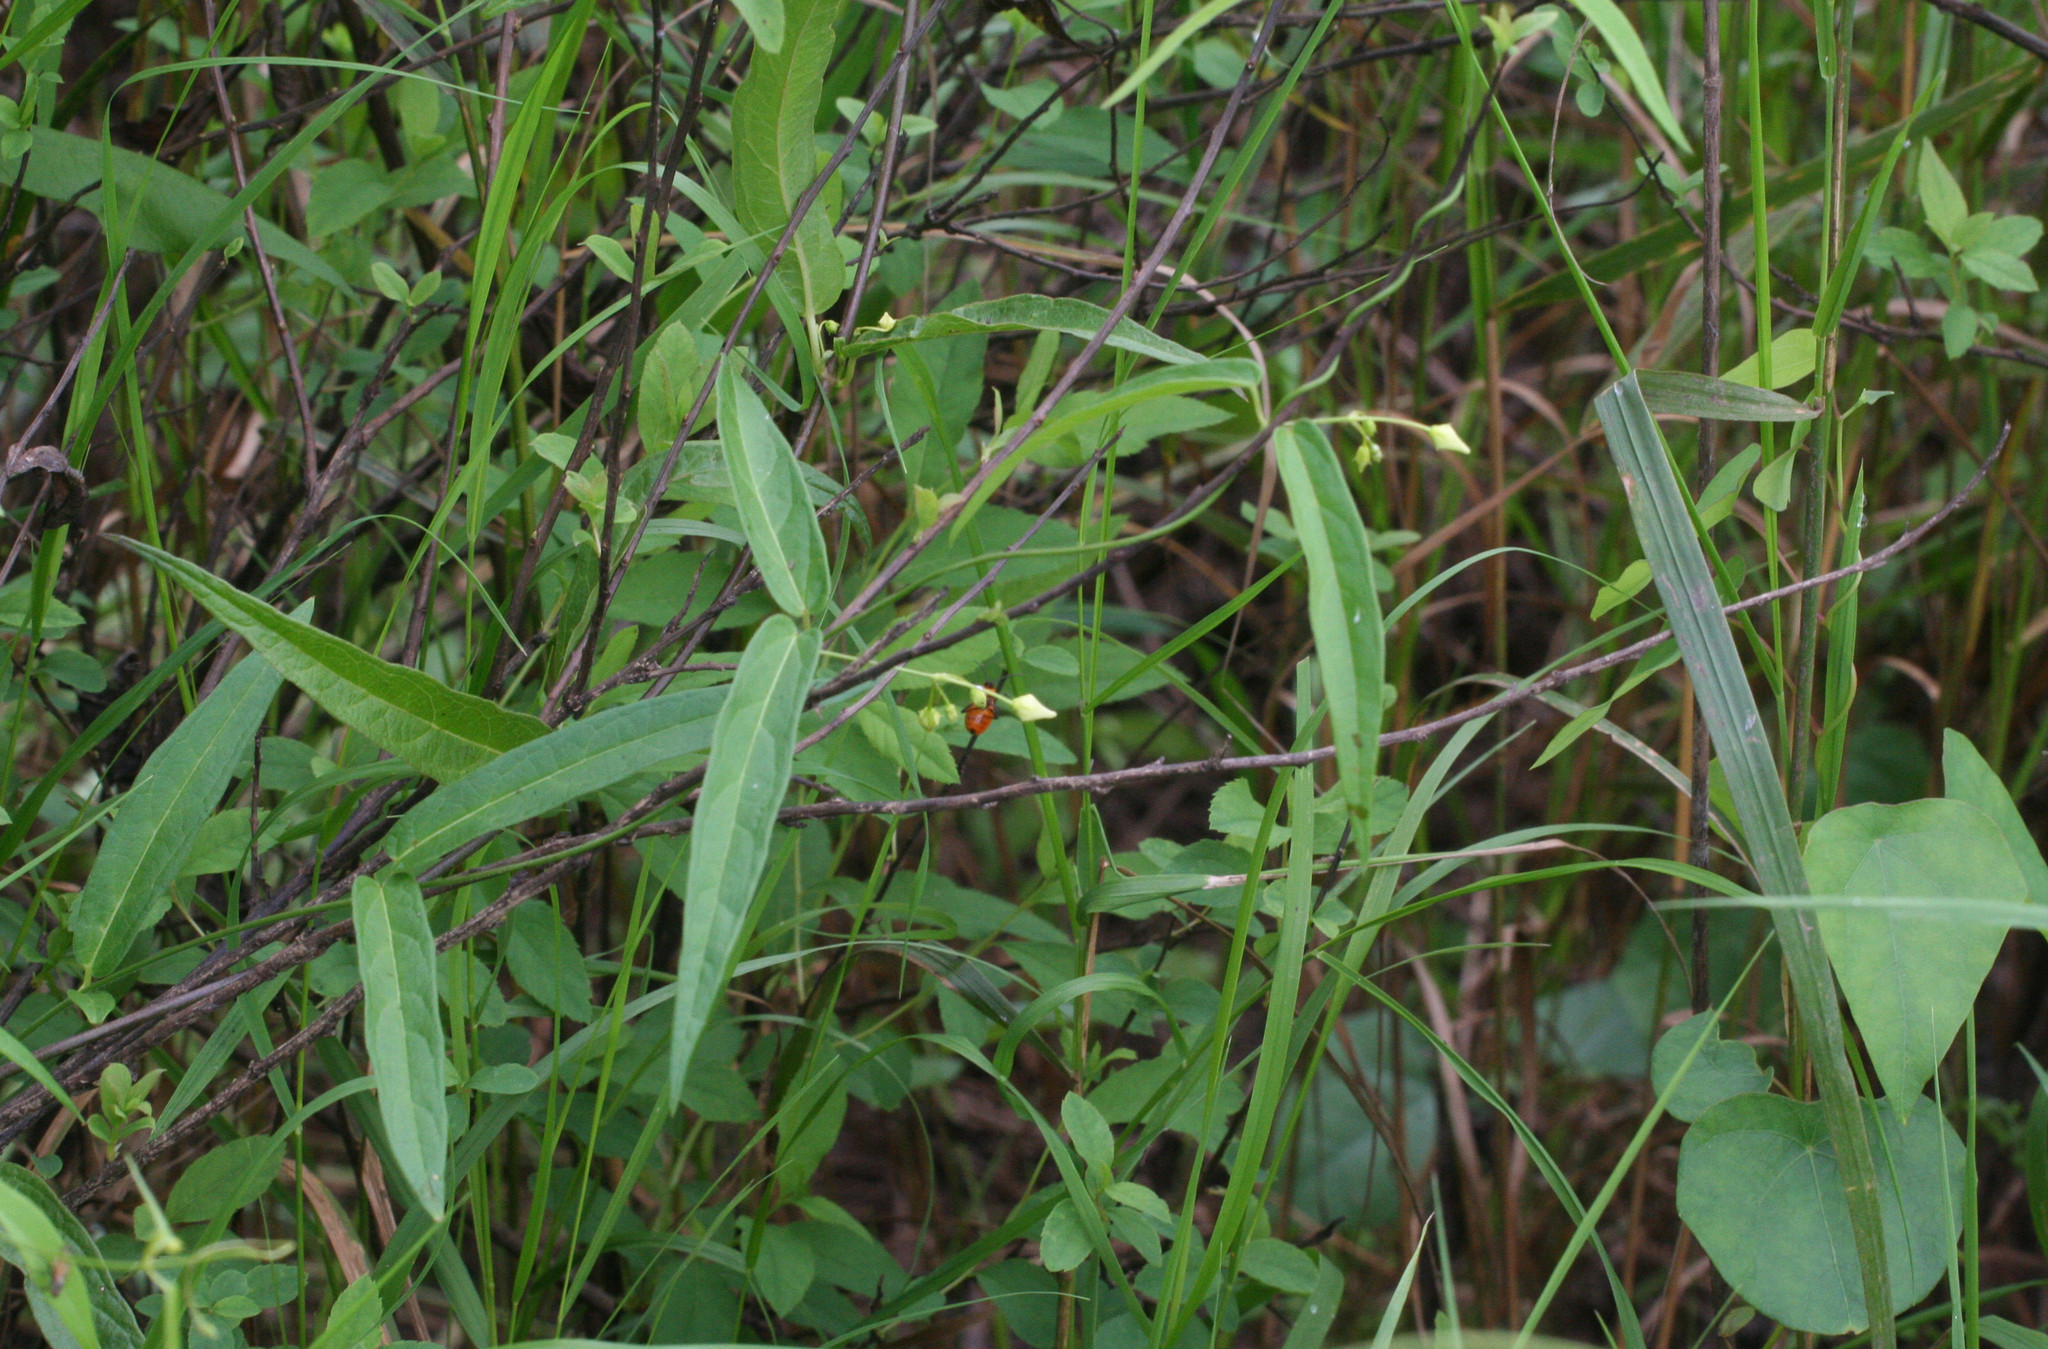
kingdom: Plantae
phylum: Tracheophyta
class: Magnoliopsida
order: Gentianales
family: Apocynaceae
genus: Vincetoxicum
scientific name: Vincetoxicum volubile
